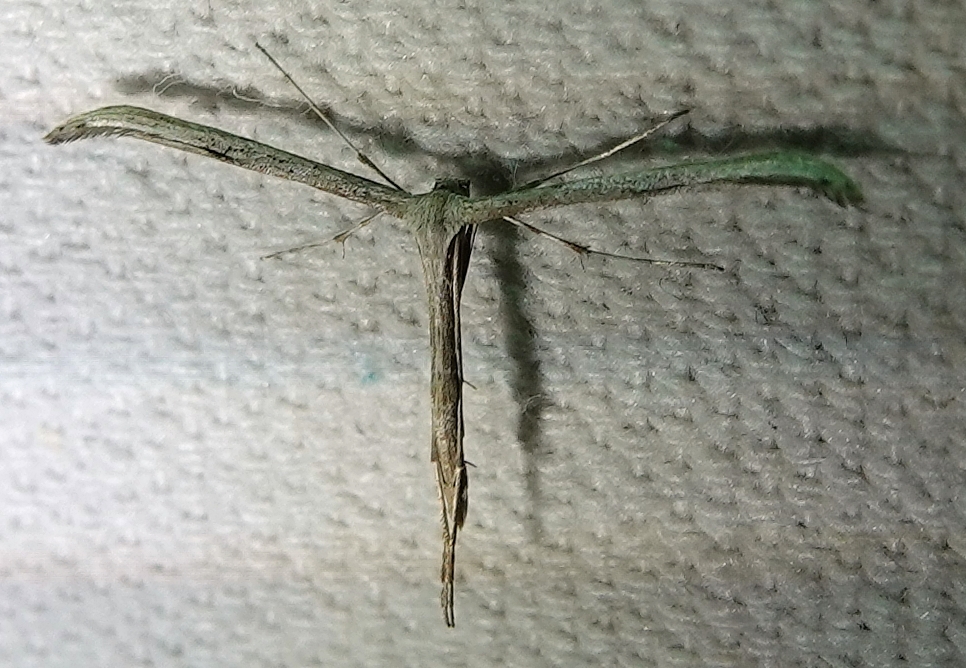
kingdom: Animalia
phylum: Arthropoda
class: Insecta
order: Lepidoptera
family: Pterophoridae
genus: Emmelina
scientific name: Emmelina monodactyla
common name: Common plume
